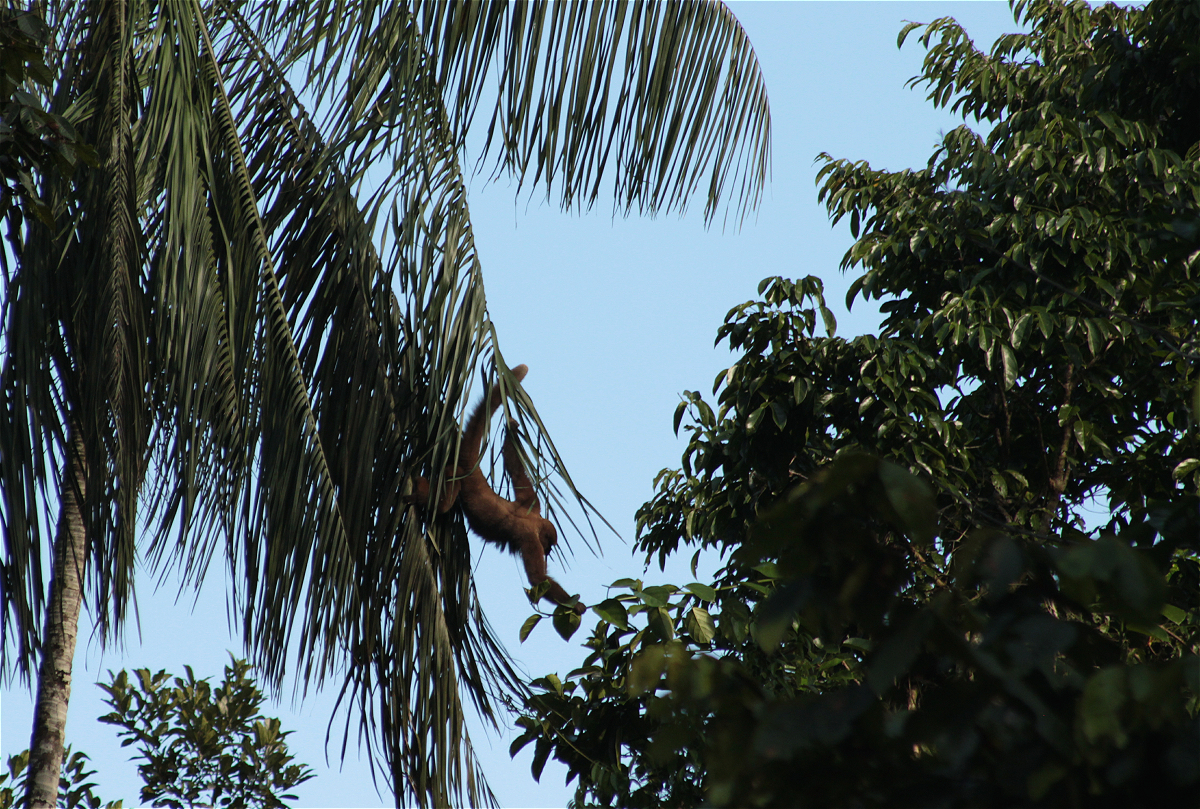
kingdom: Animalia
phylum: Chordata
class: Mammalia
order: Primates
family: Atelidae
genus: Lagothrix
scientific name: Lagothrix lagothricha
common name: Brown woolly monkey
